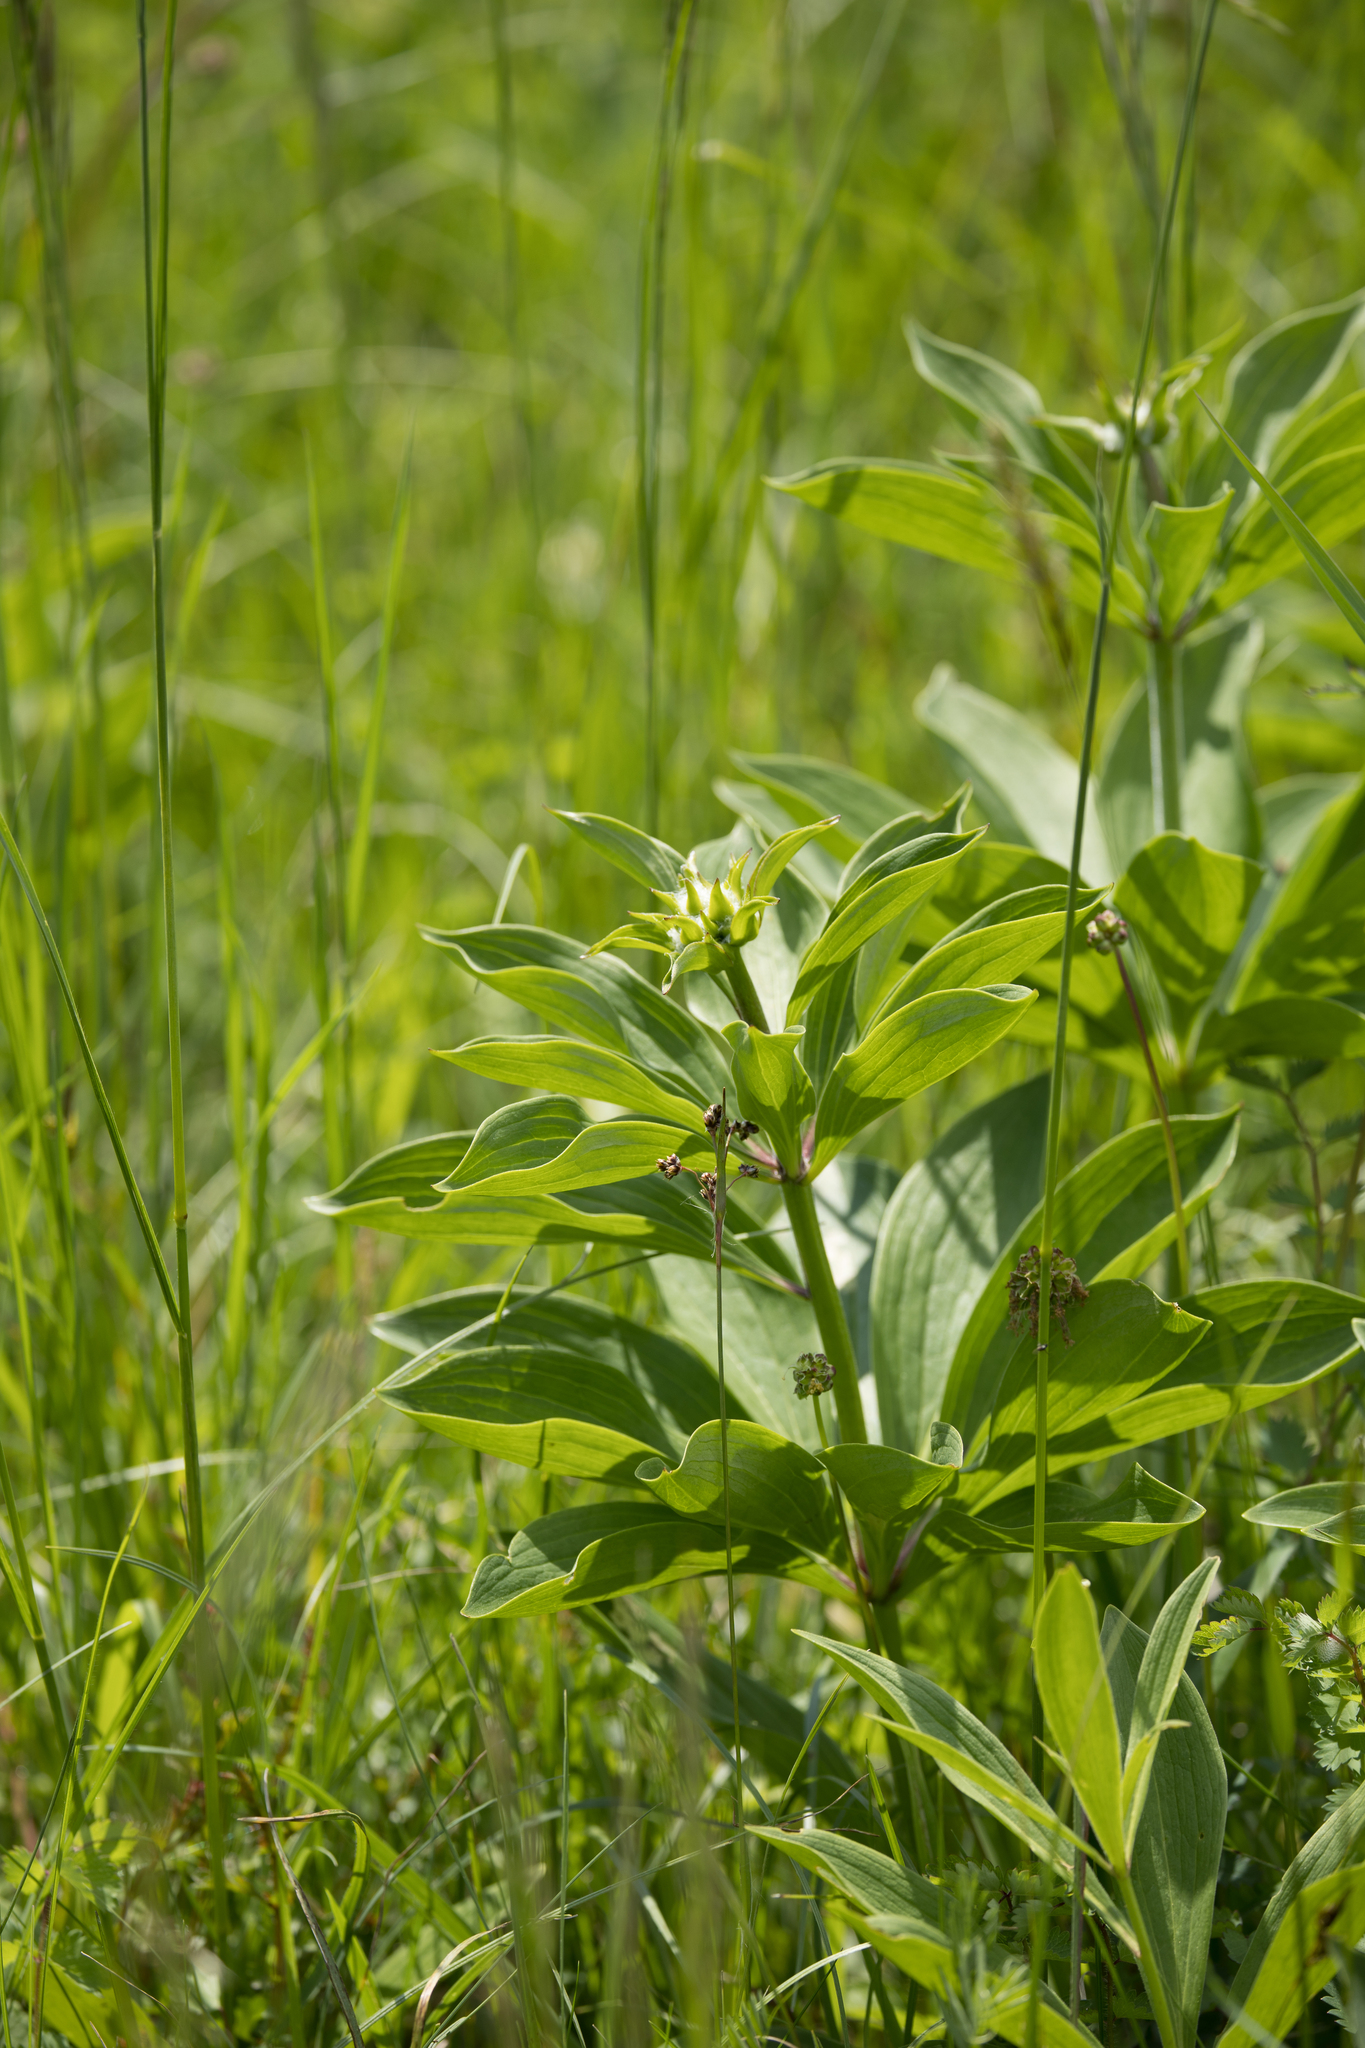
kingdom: Plantae
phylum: Tracheophyta
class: Liliopsida
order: Liliales
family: Liliaceae
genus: Lilium
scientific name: Lilium martagon
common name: Martagon lily
